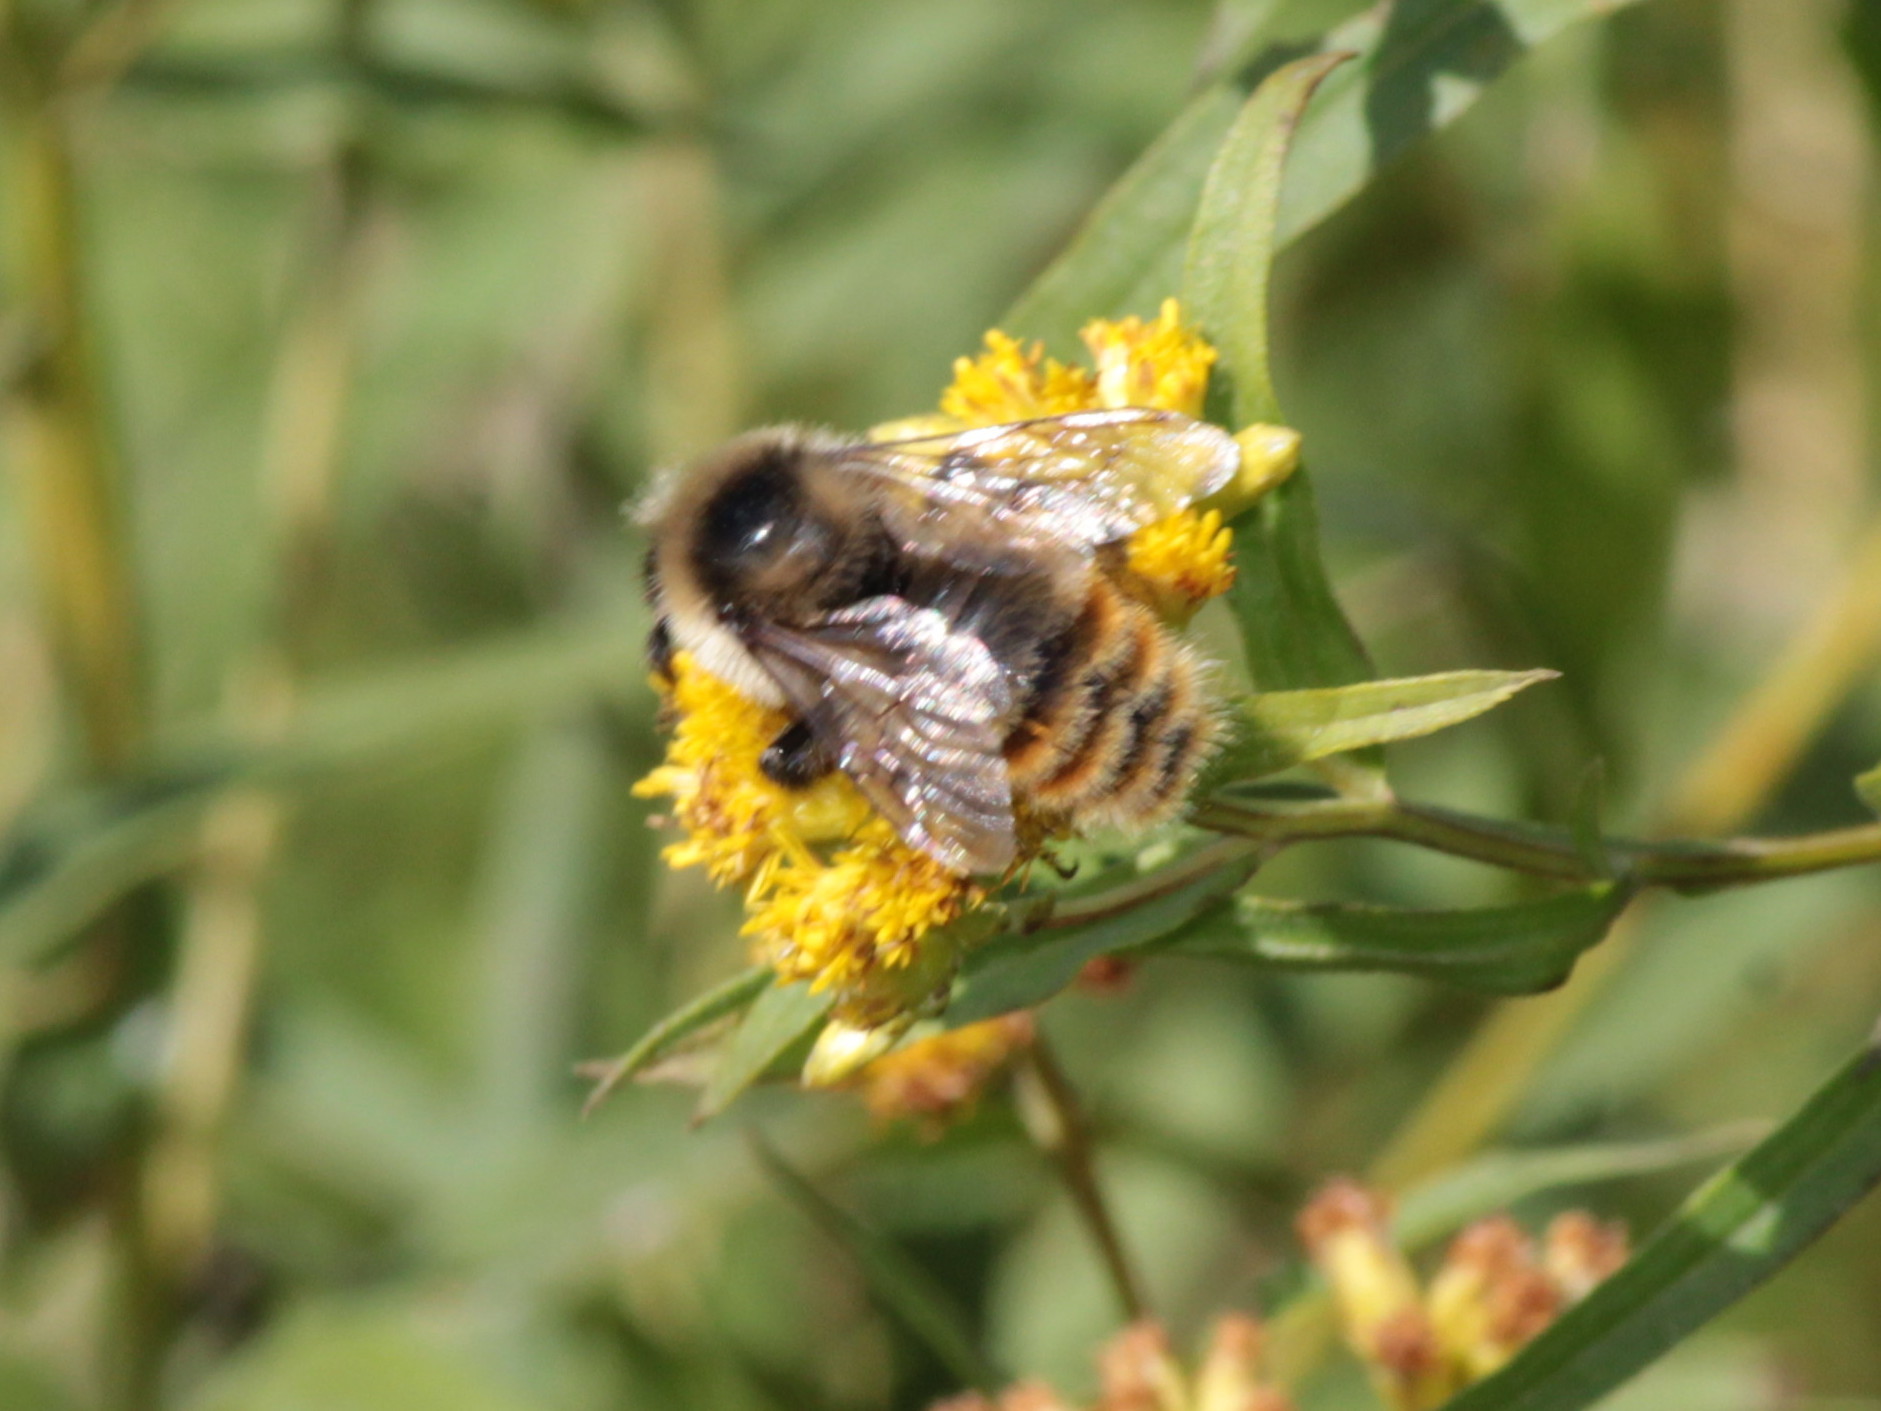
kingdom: Animalia
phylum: Arthropoda
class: Insecta
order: Hymenoptera
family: Apidae
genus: Bombus
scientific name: Bombus rufocinctus
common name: Red-belted bumble bee
